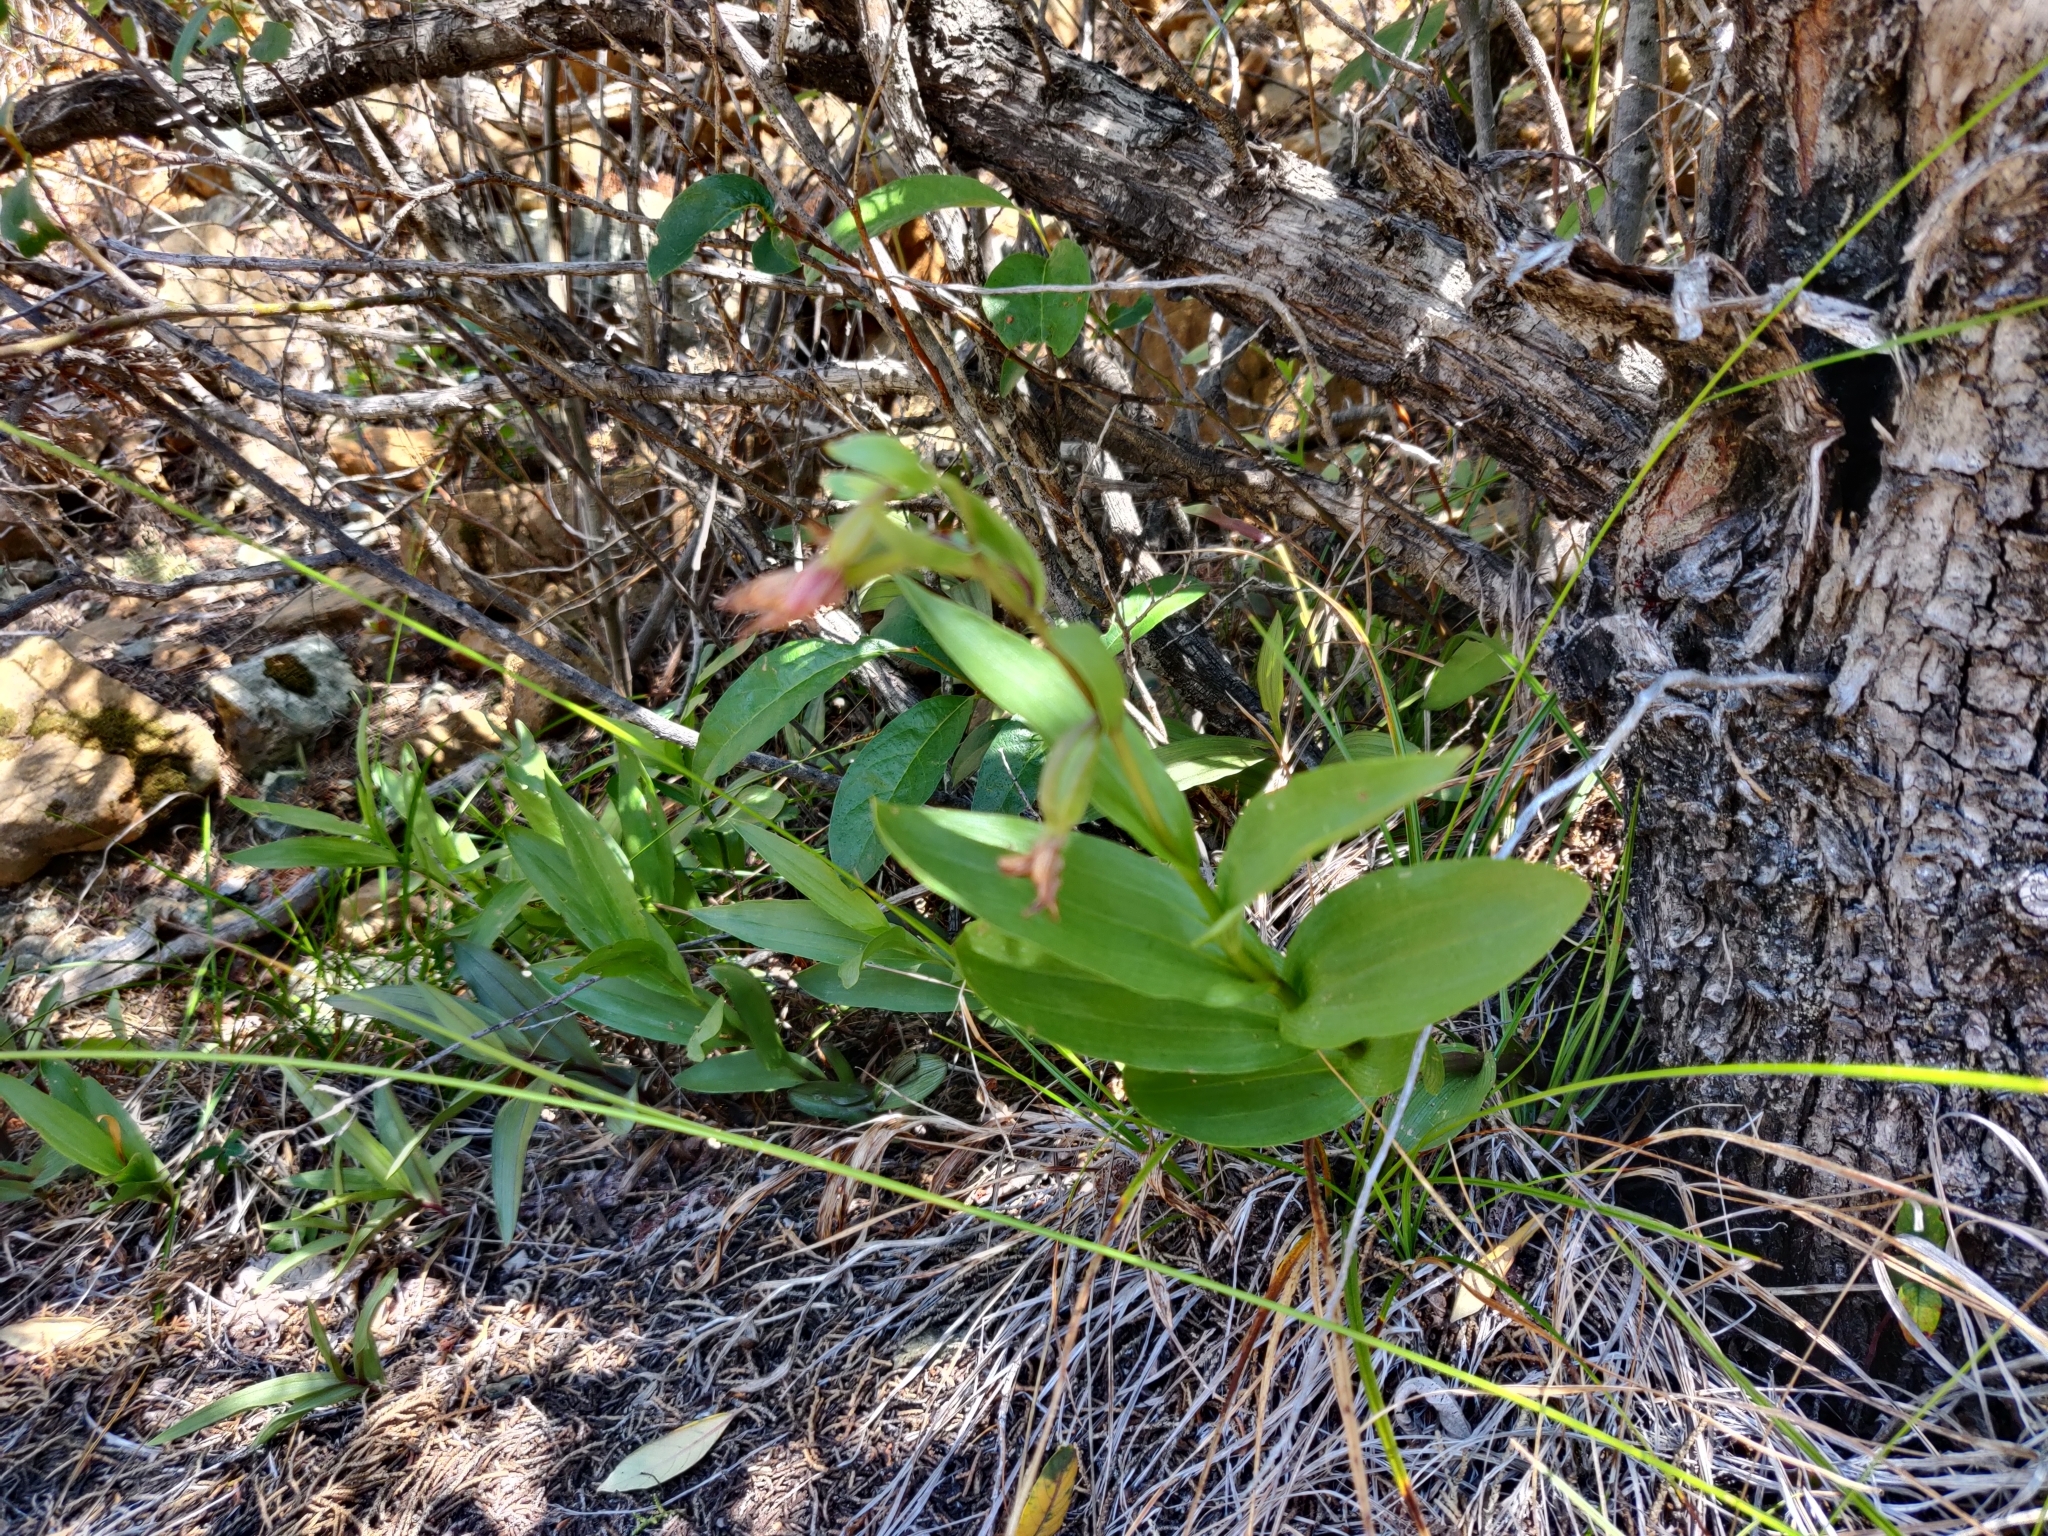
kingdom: Plantae
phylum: Tracheophyta
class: Liliopsida
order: Asparagales
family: Orchidaceae
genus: Epipactis
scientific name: Epipactis gigantea
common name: Chatterbox
